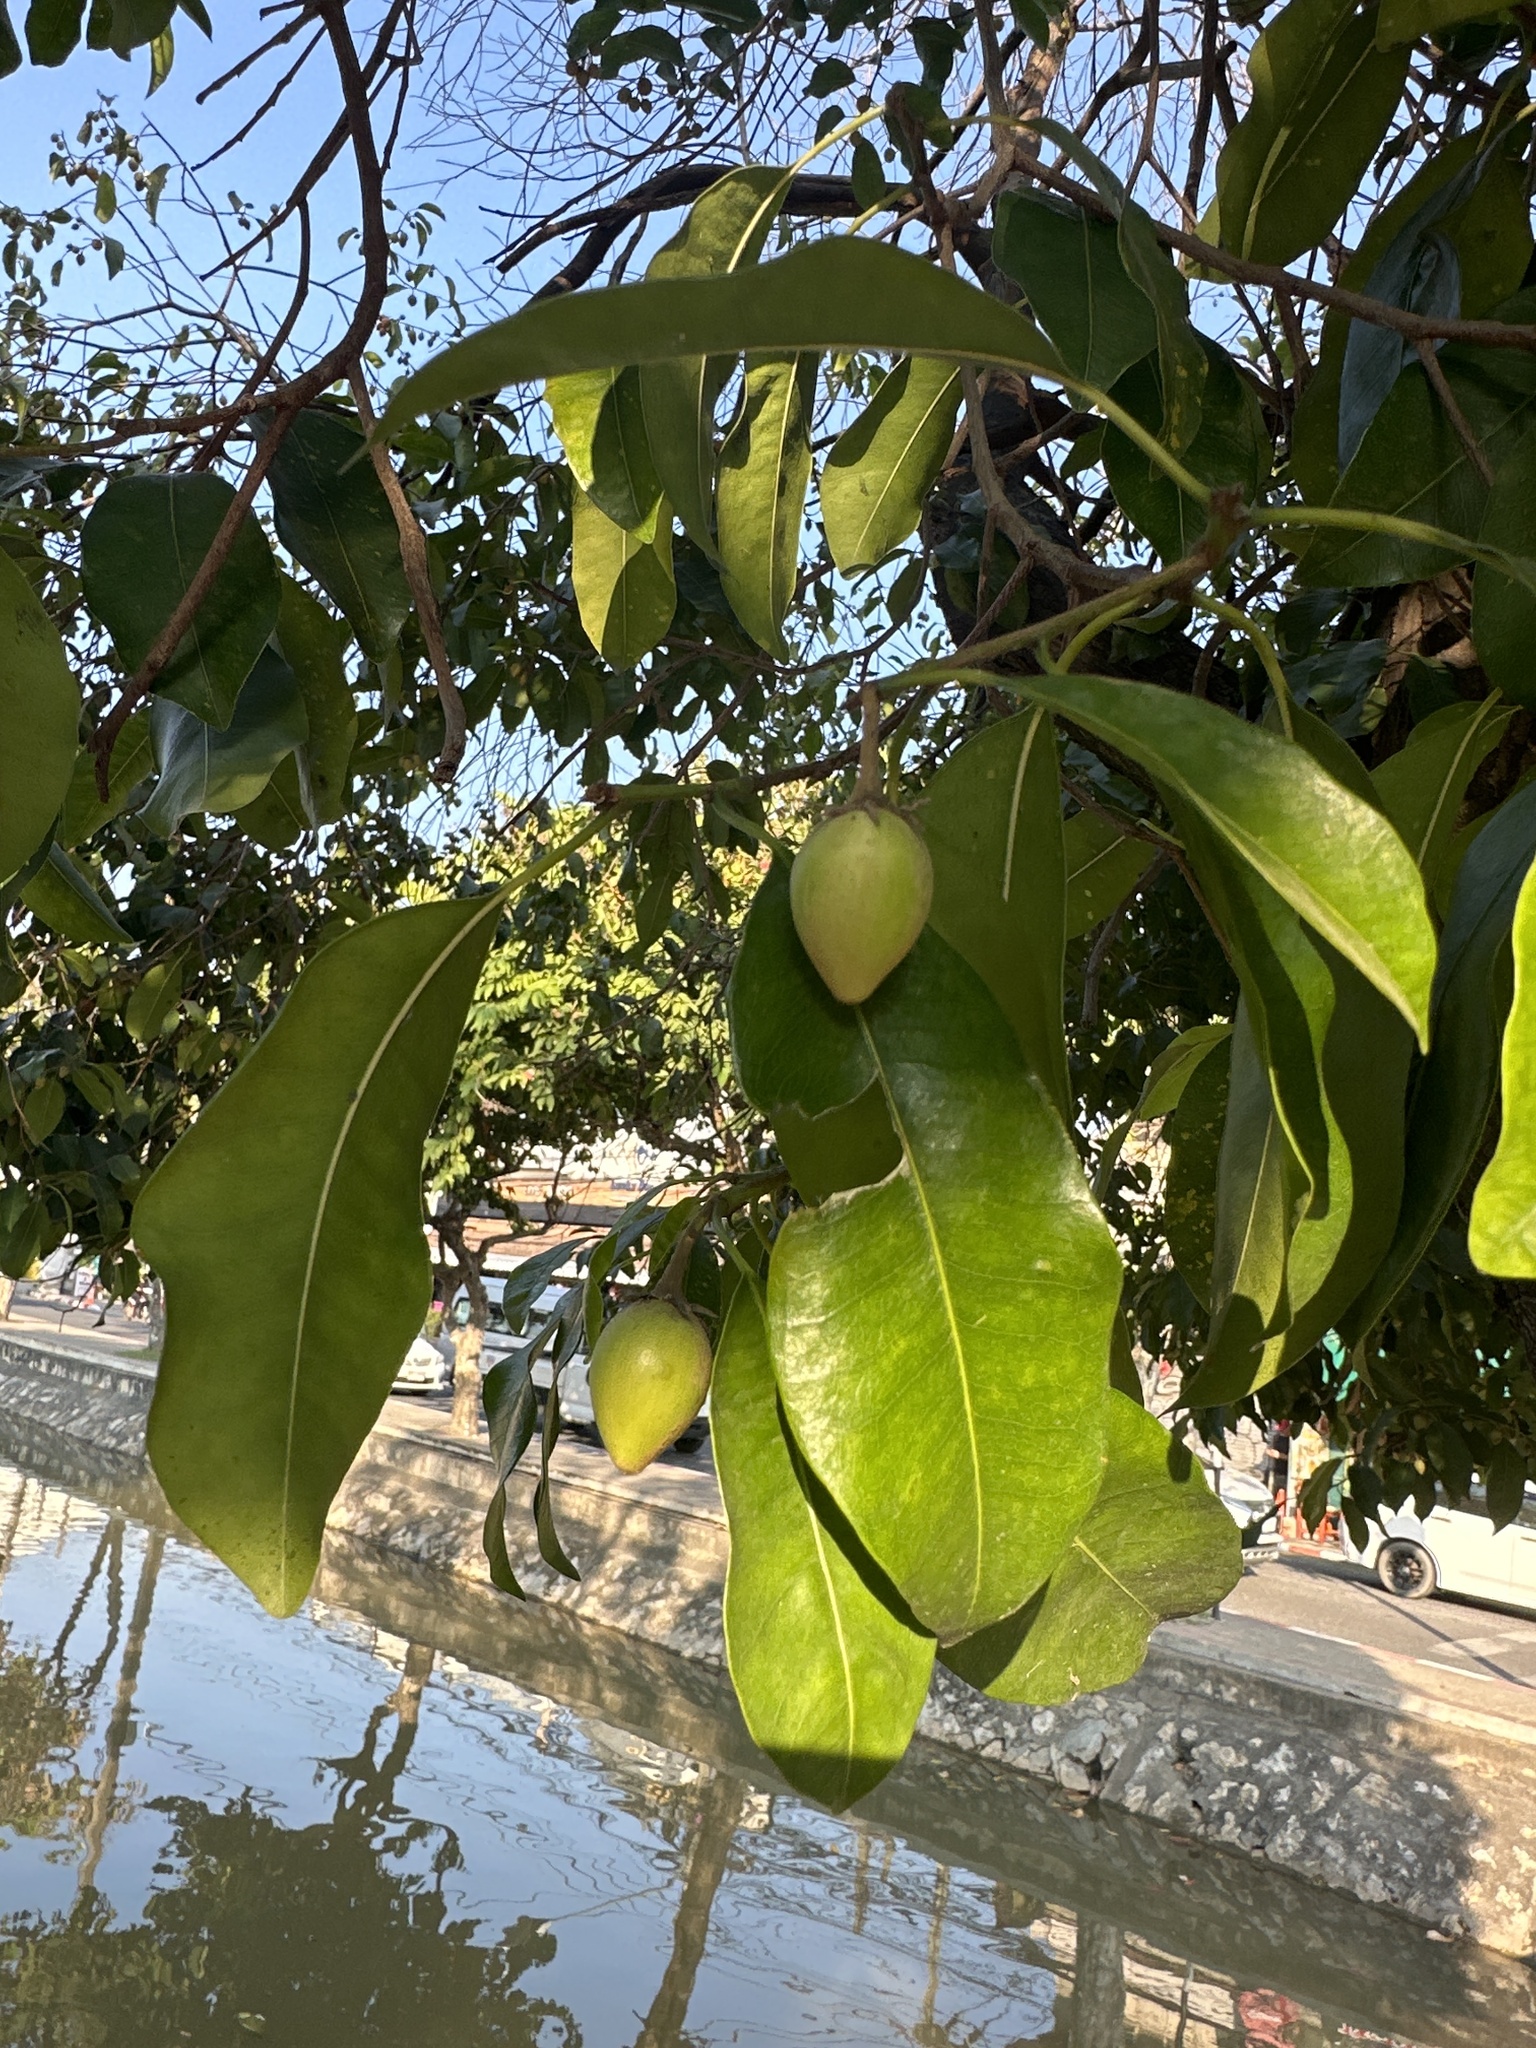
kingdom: Plantae
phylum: Tracheophyta
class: Magnoliopsida
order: Ericales
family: Sapotaceae
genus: Mimusops
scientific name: Mimusops elengi
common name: Spanish cherry
